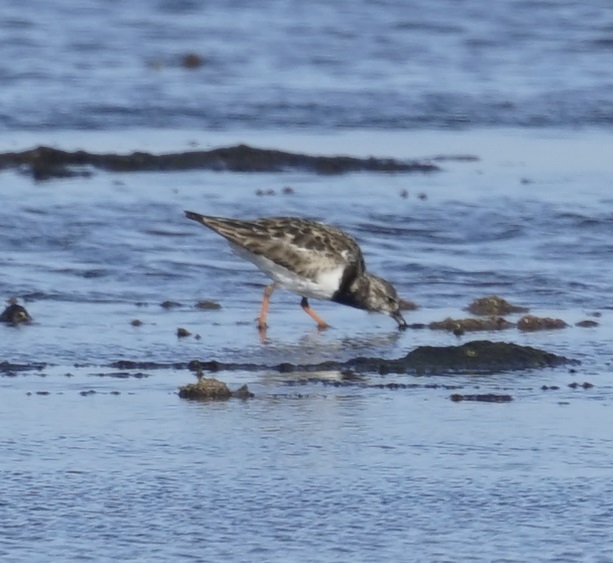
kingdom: Animalia
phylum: Chordata
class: Aves
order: Charadriiformes
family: Scolopacidae
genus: Arenaria
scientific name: Arenaria interpres
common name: Ruddy turnstone
